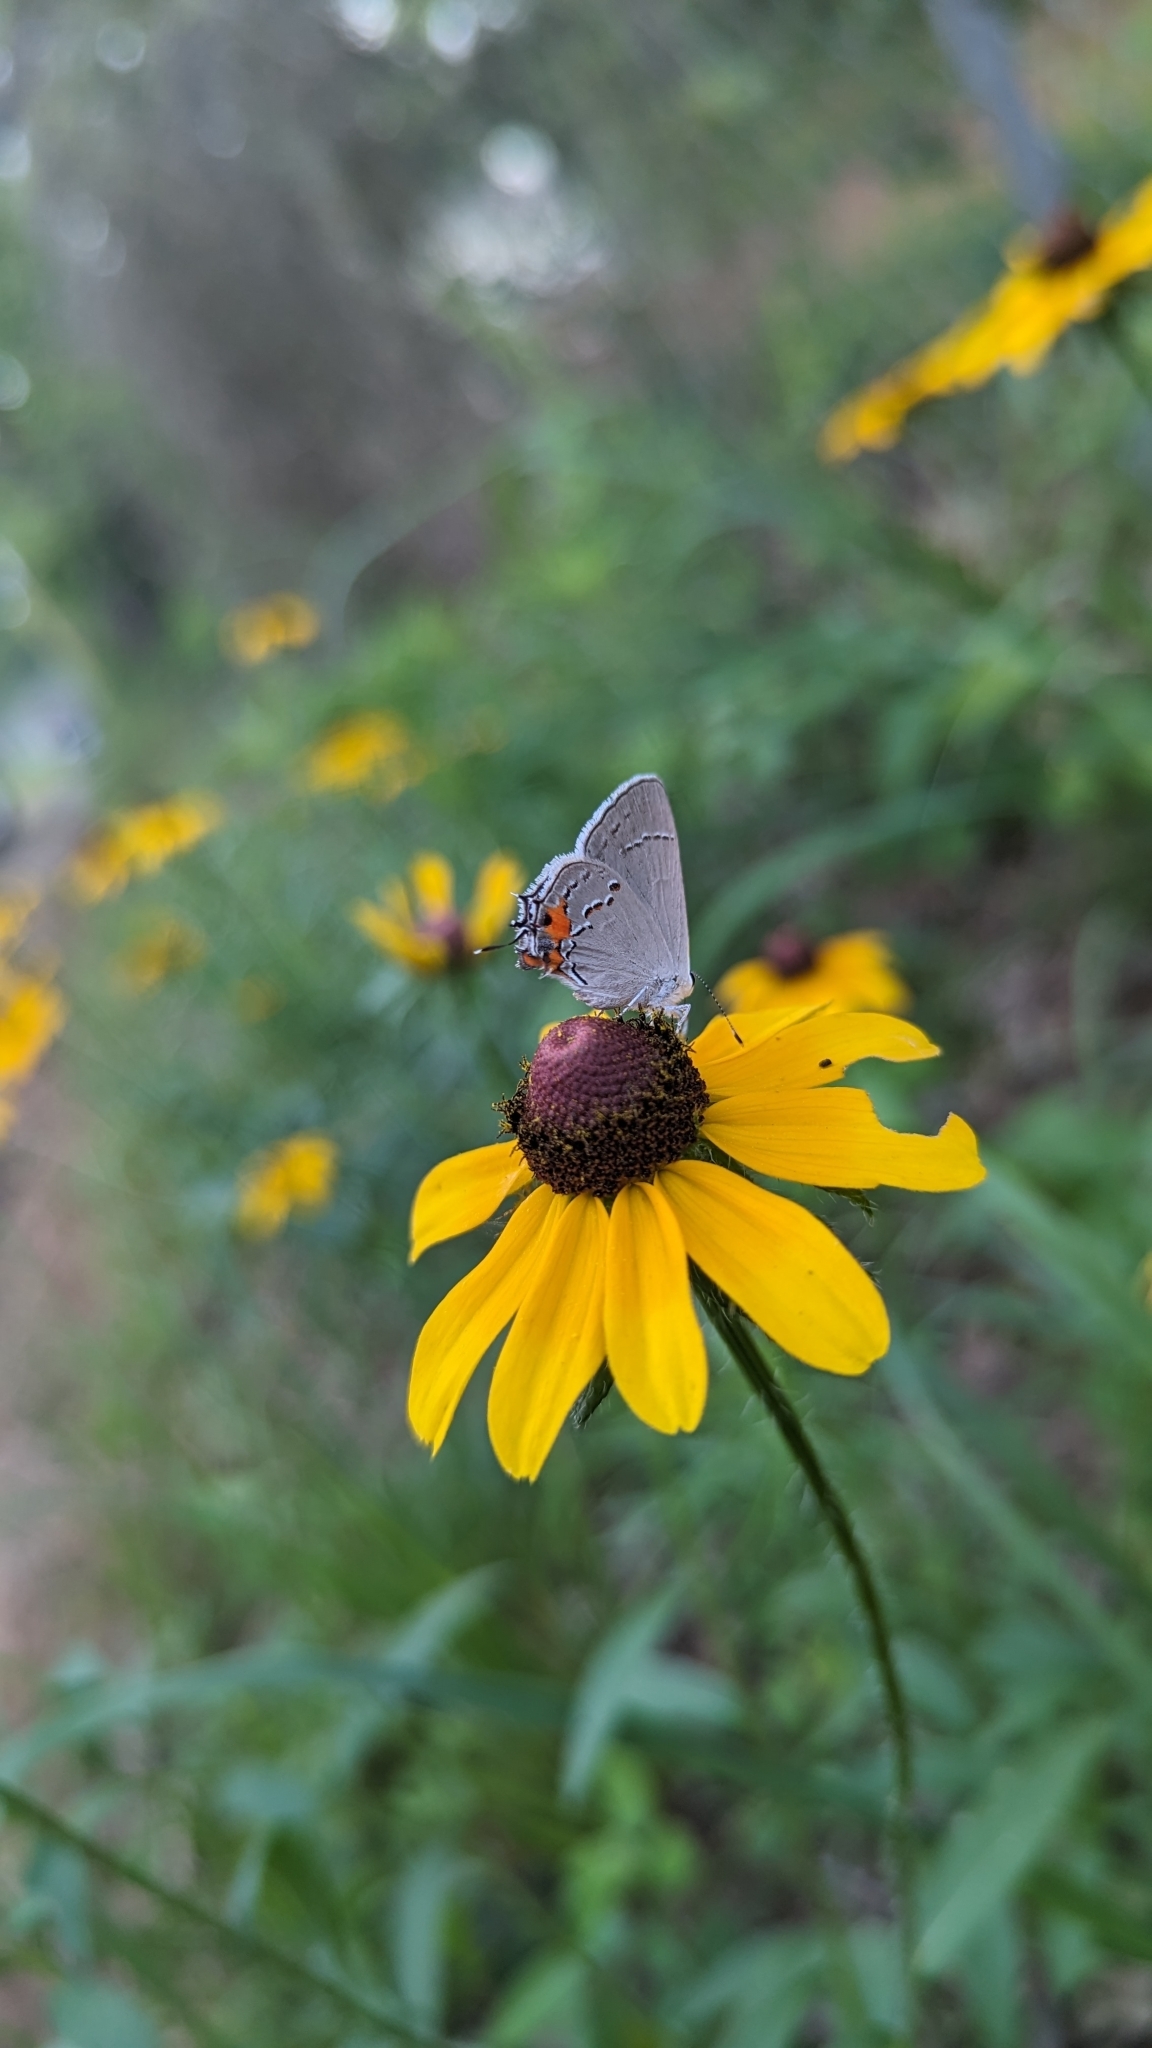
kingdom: Animalia
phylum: Arthropoda
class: Insecta
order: Lepidoptera
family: Lycaenidae
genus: Strymon
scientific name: Strymon melinus
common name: Gray hairstreak
